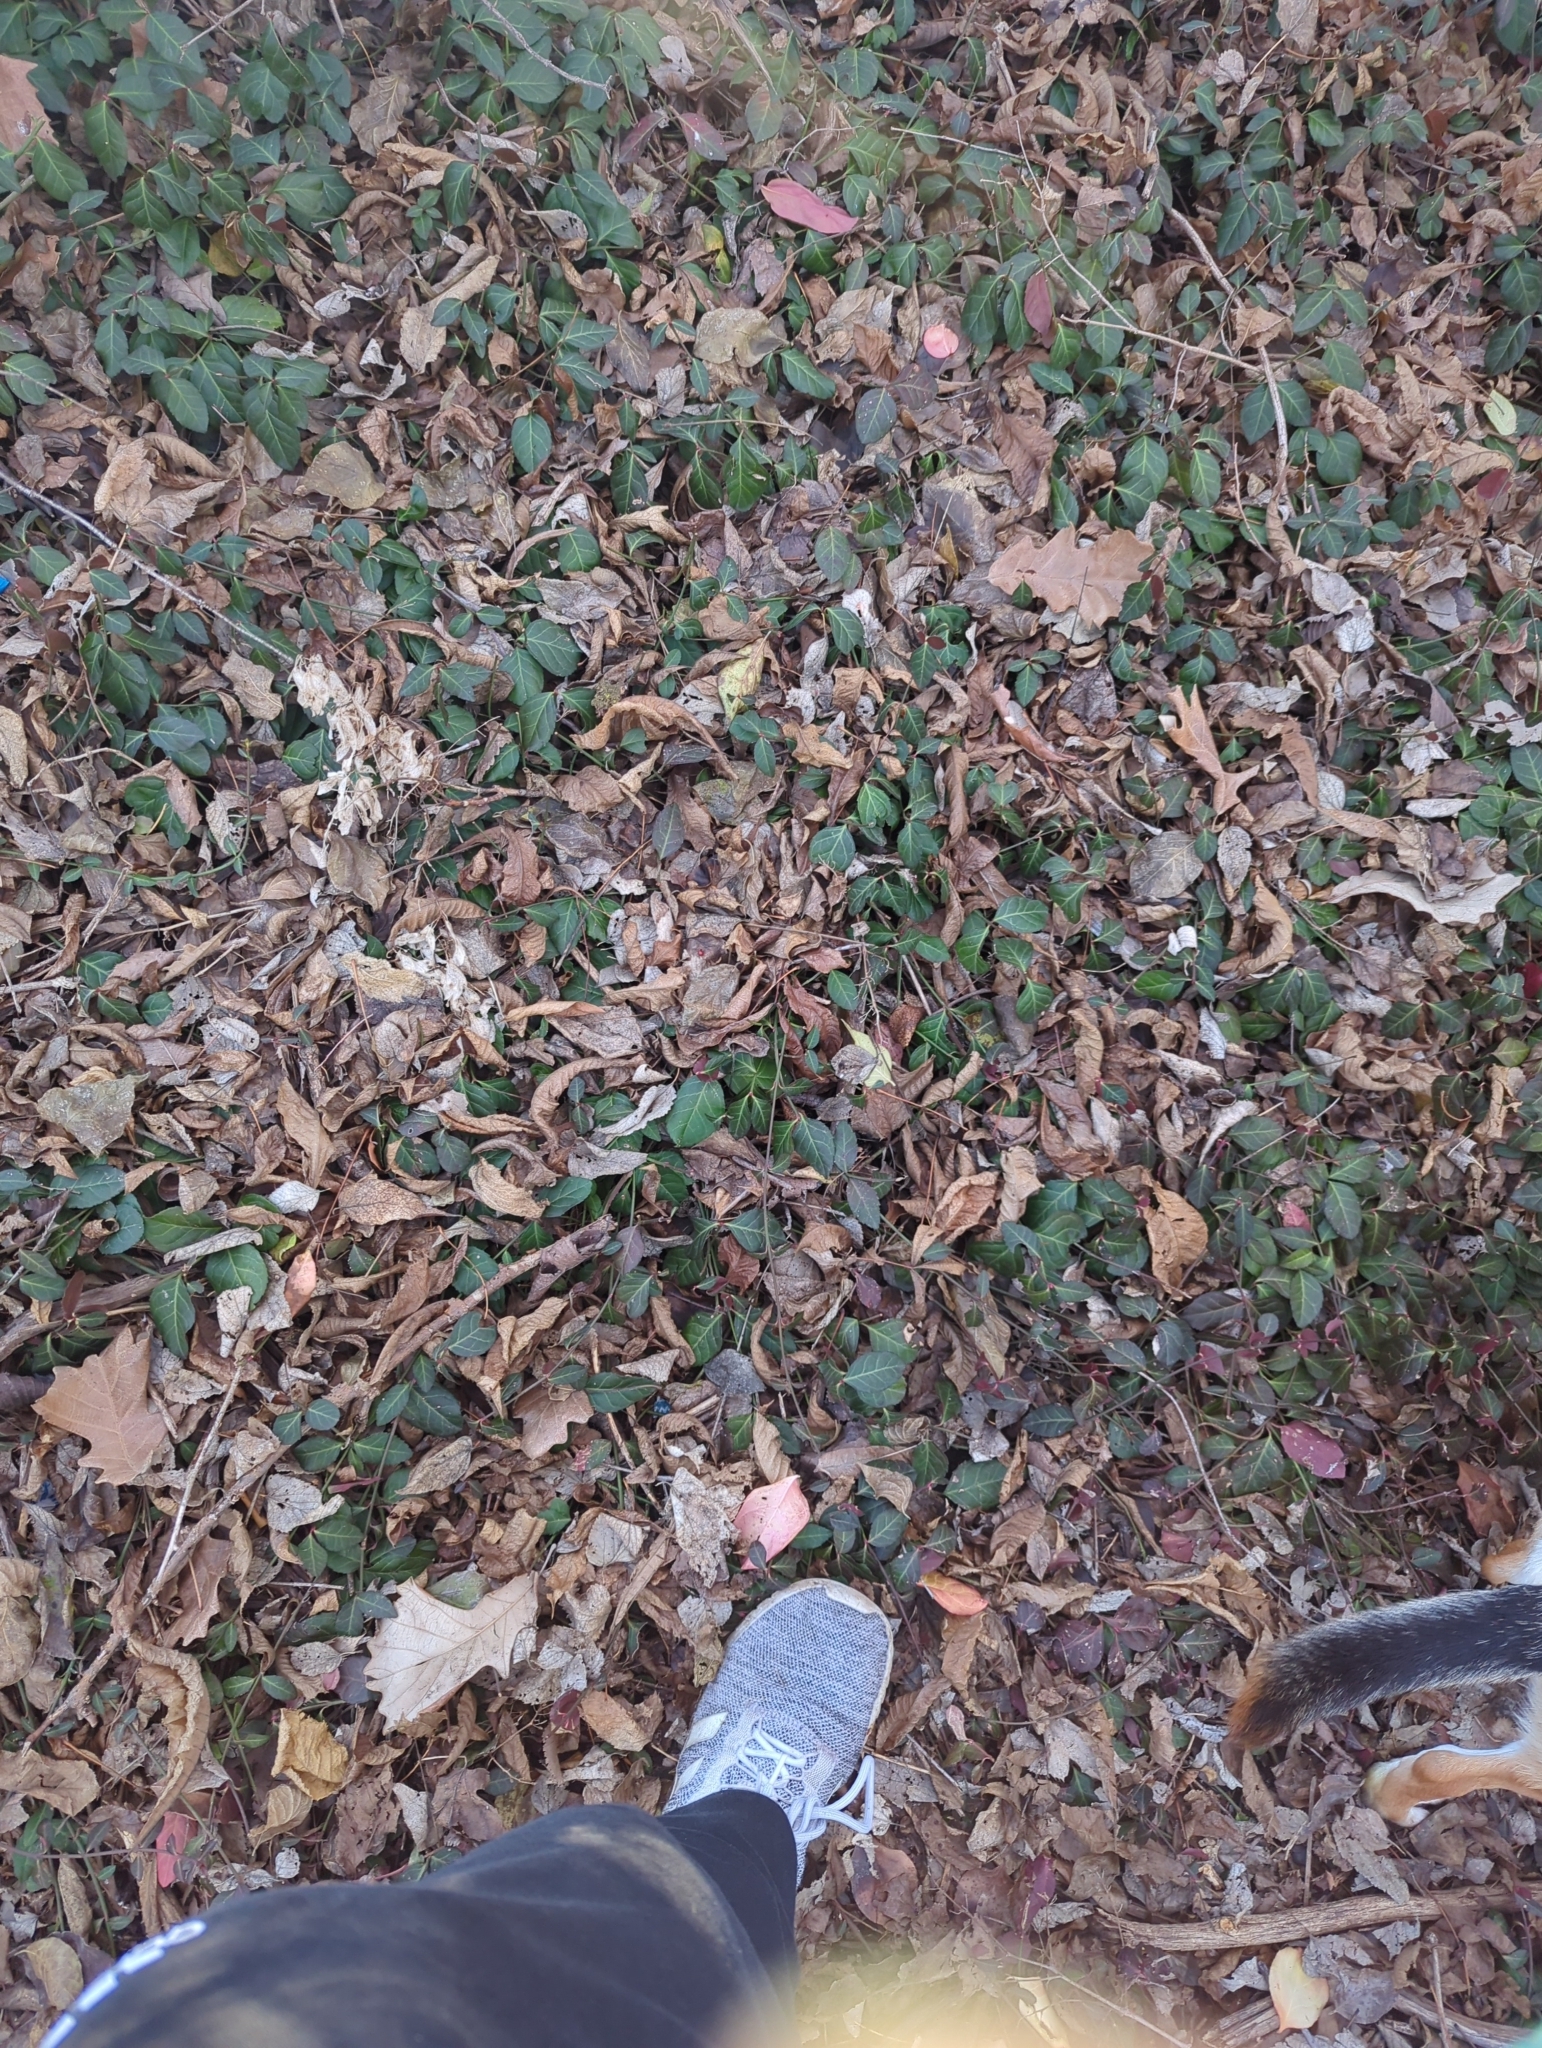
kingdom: Plantae
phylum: Tracheophyta
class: Magnoliopsida
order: Celastrales
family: Celastraceae
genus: Euonymus
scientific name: Euonymus fortunei
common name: Climbing euonymus
